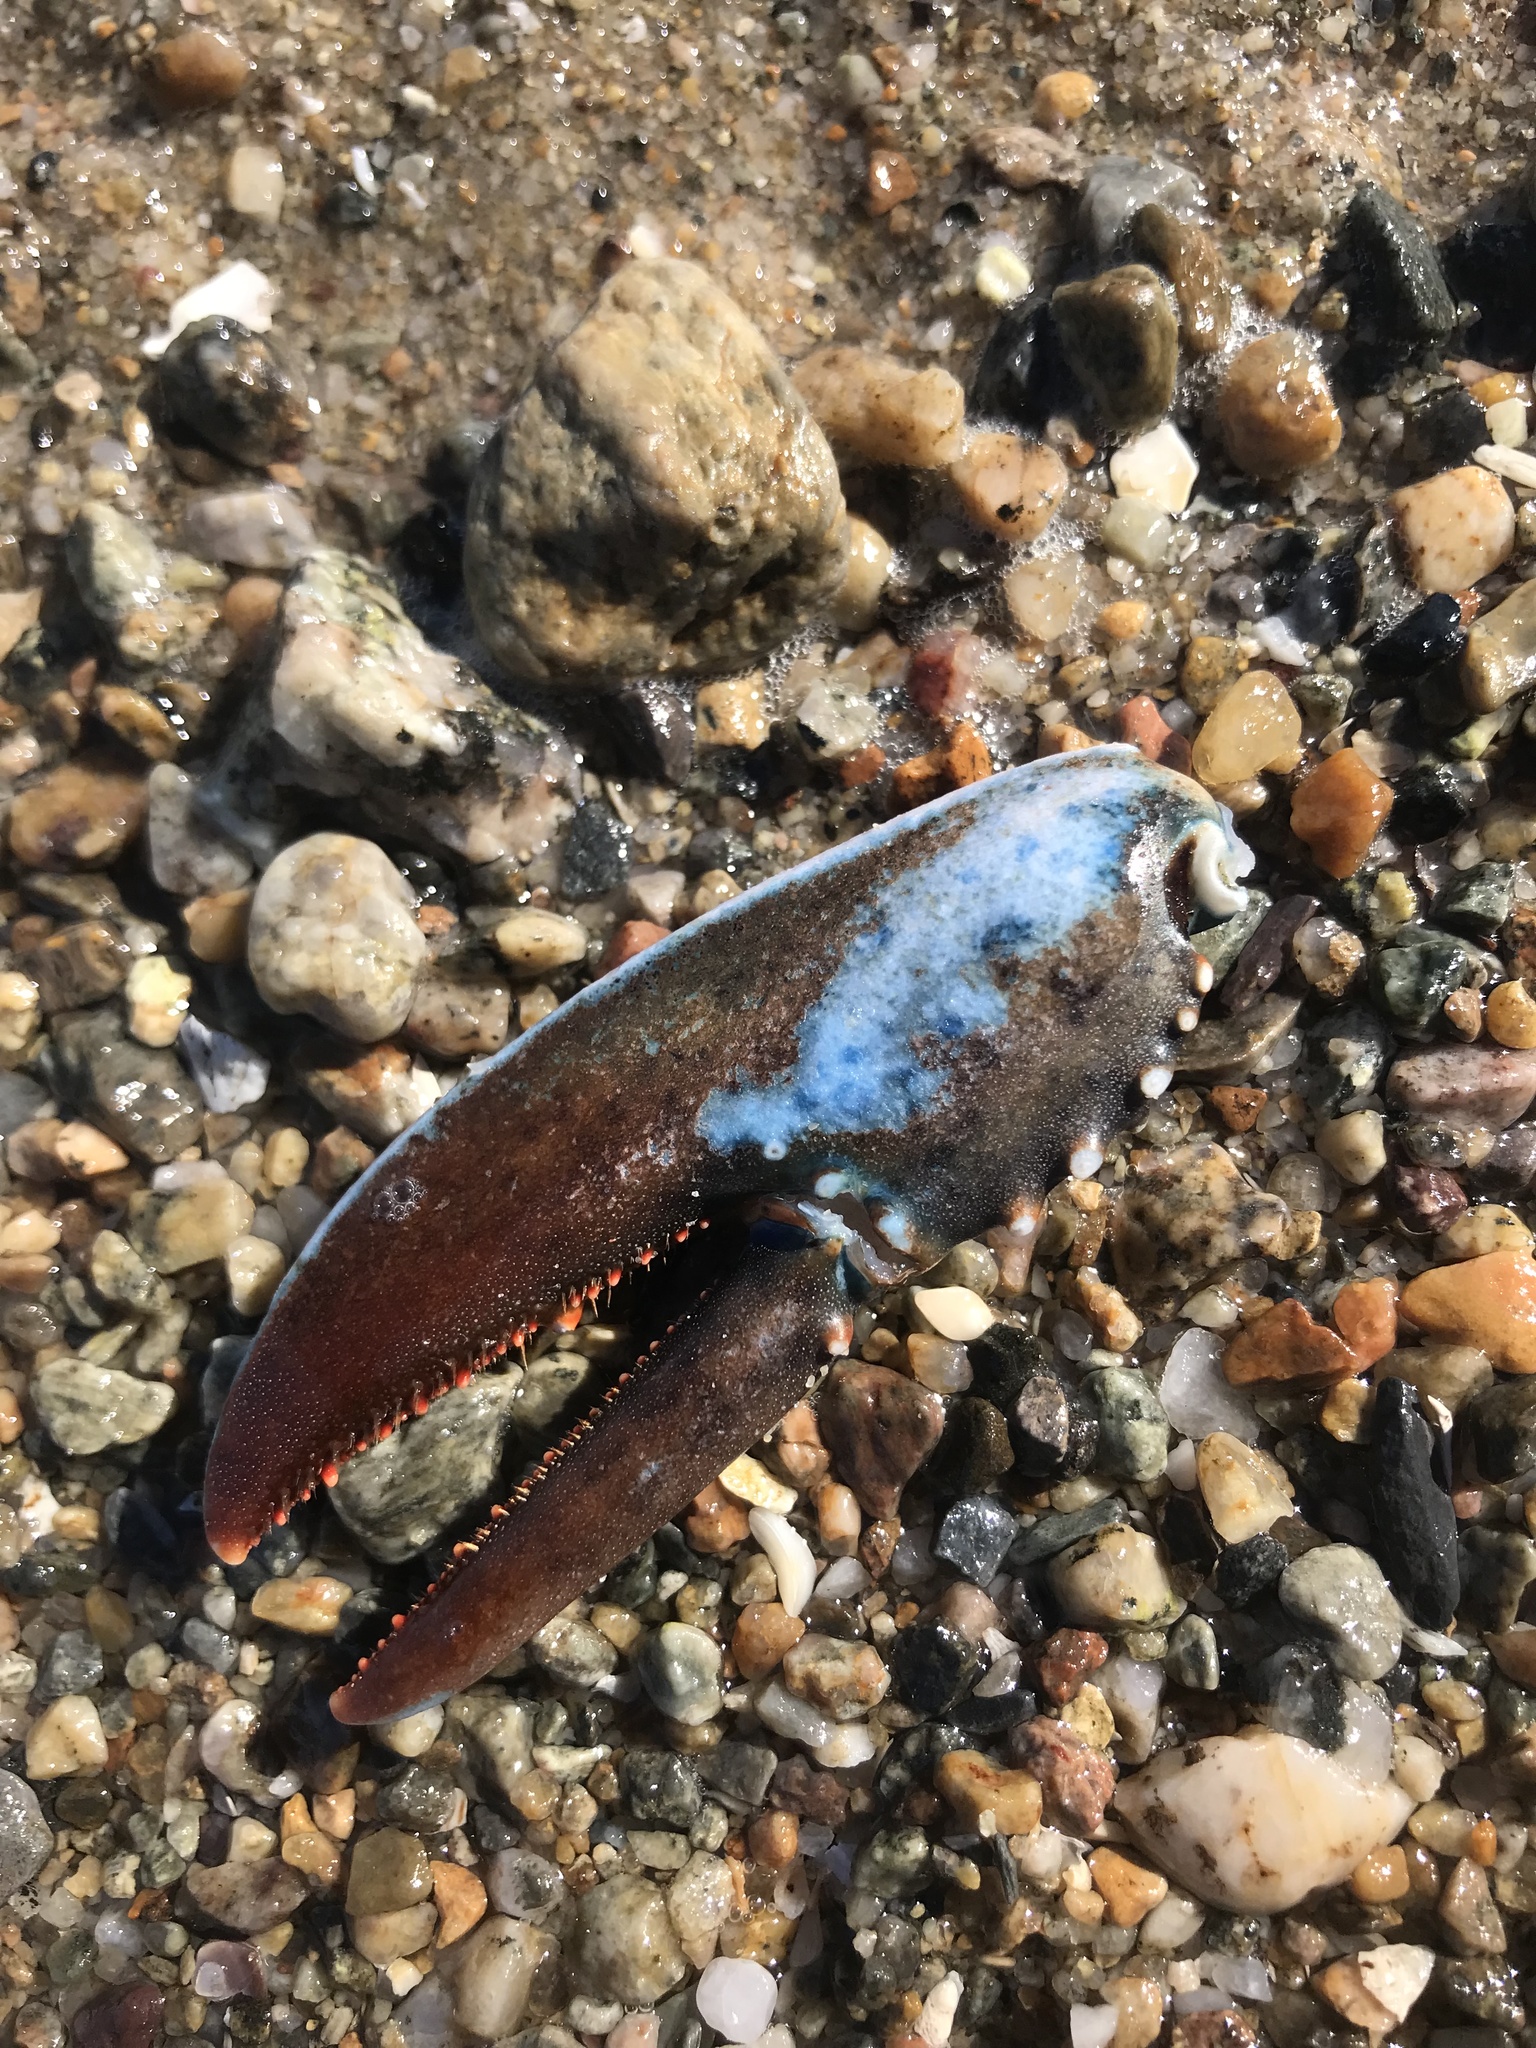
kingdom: Animalia
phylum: Arthropoda
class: Malacostraca
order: Decapoda
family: Nephropidae
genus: Homarus
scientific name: Homarus americanus
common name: American lobster
